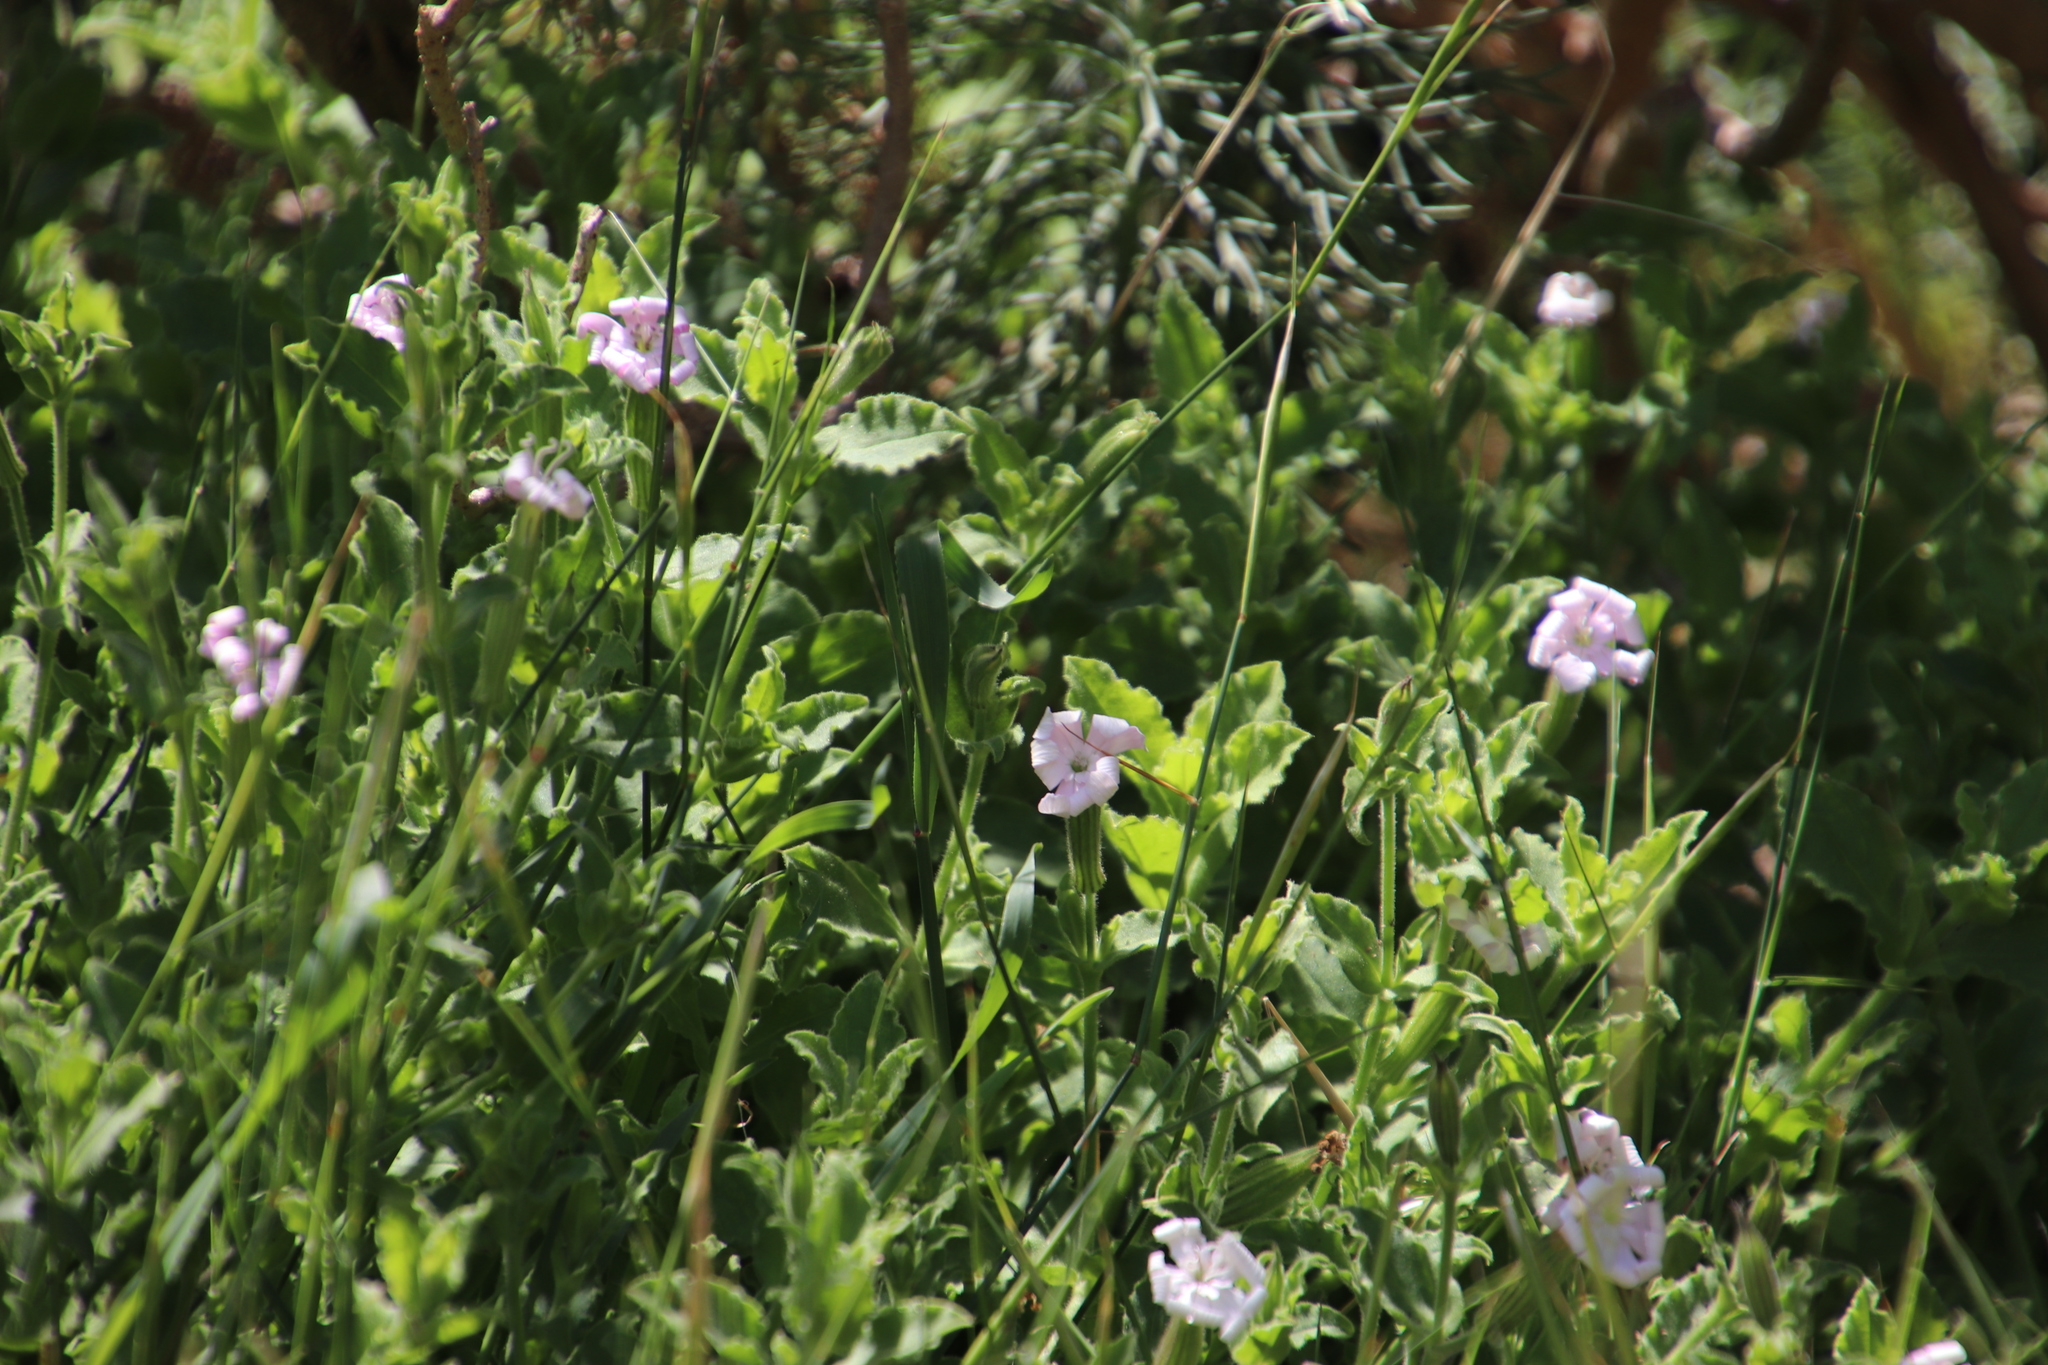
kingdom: Plantae
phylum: Tracheophyta
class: Magnoliopsida
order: Caryophyllales
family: Caryophyllaceae
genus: Silene
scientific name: Silene undulata
